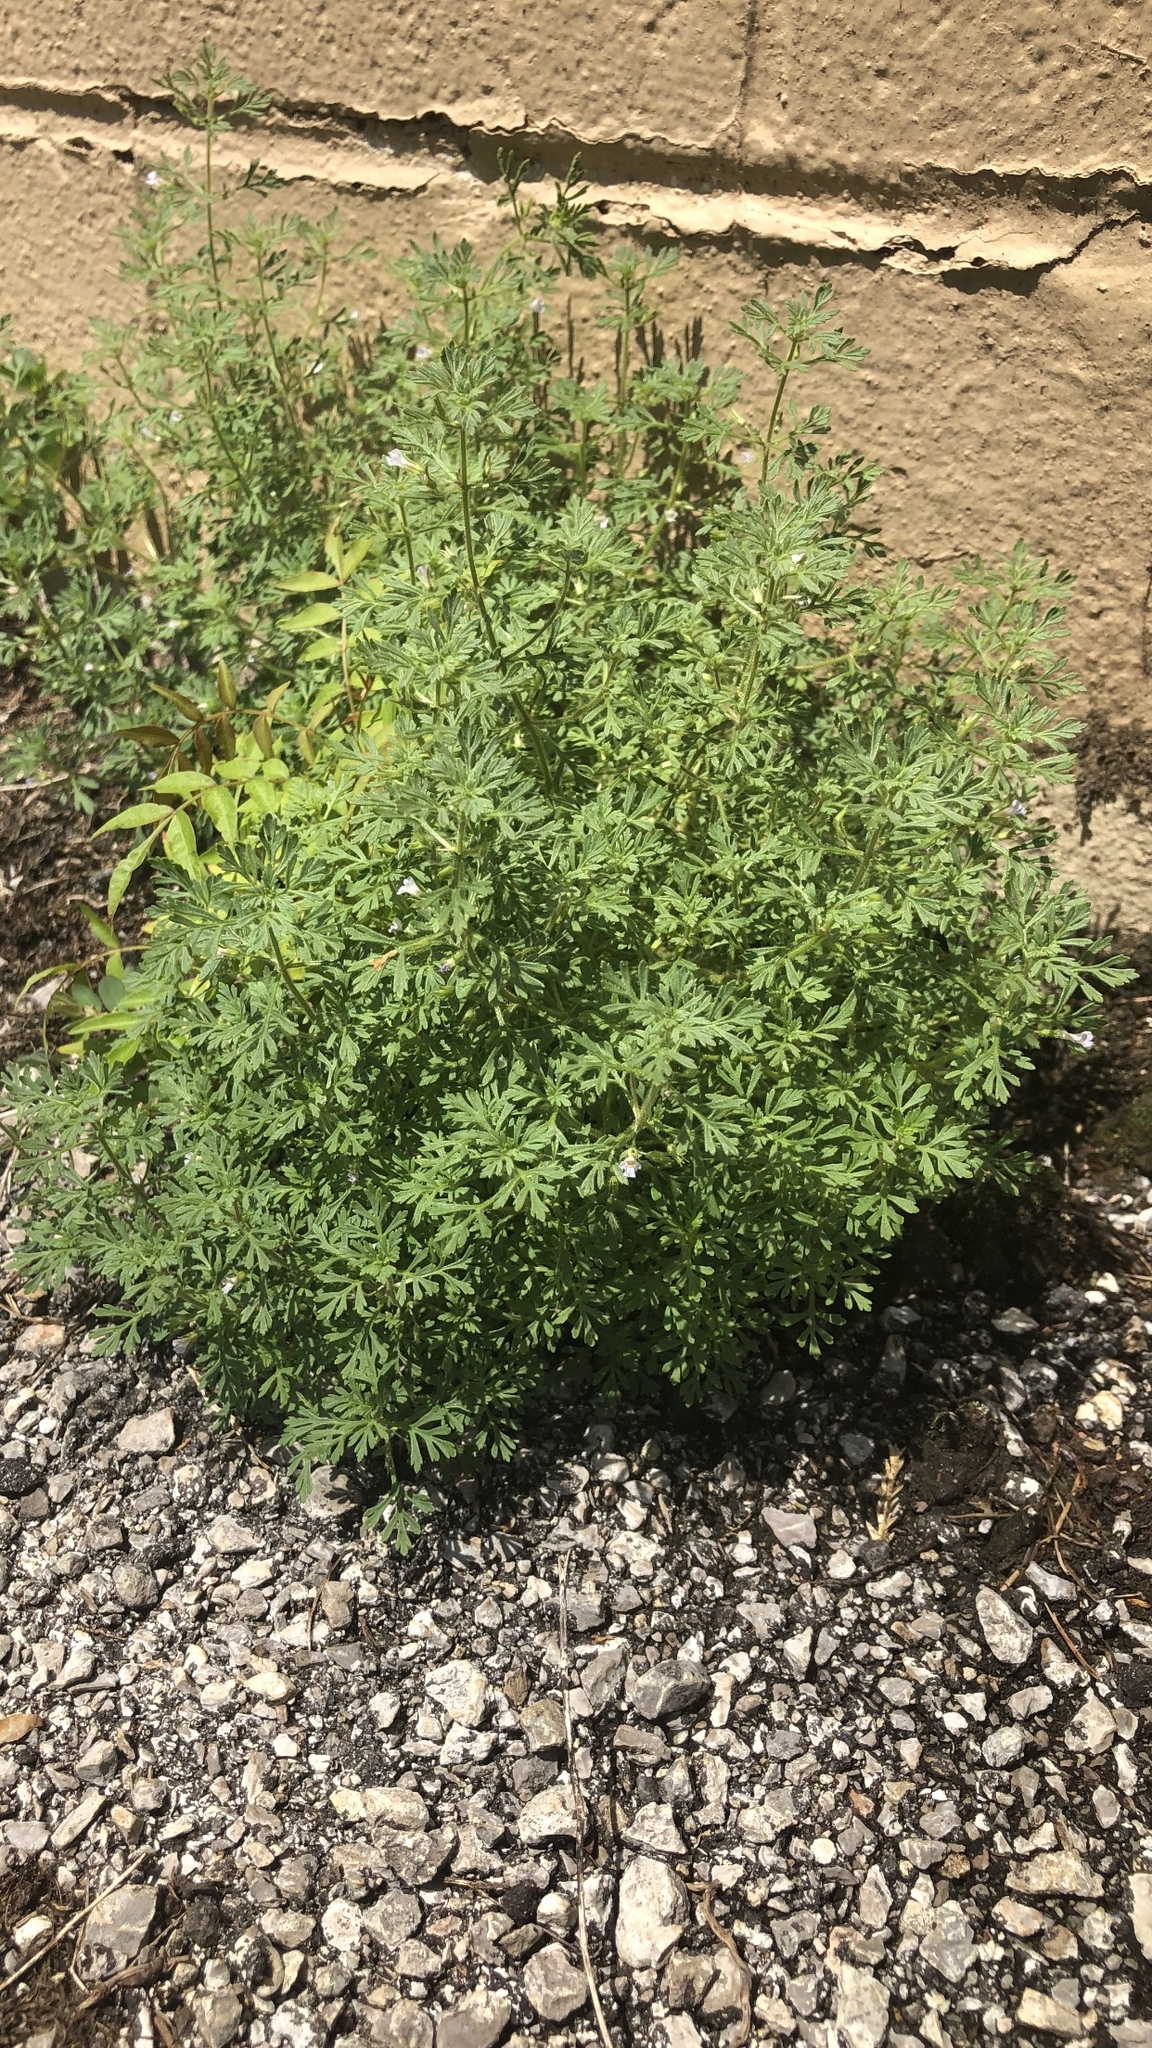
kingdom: Plantae
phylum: Tracheophyta
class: Magnoliopsida
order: Lamiales
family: Plantaginaceae
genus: Leucospora
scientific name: Leucospora multifida
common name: Narrow-leaf paleseed
